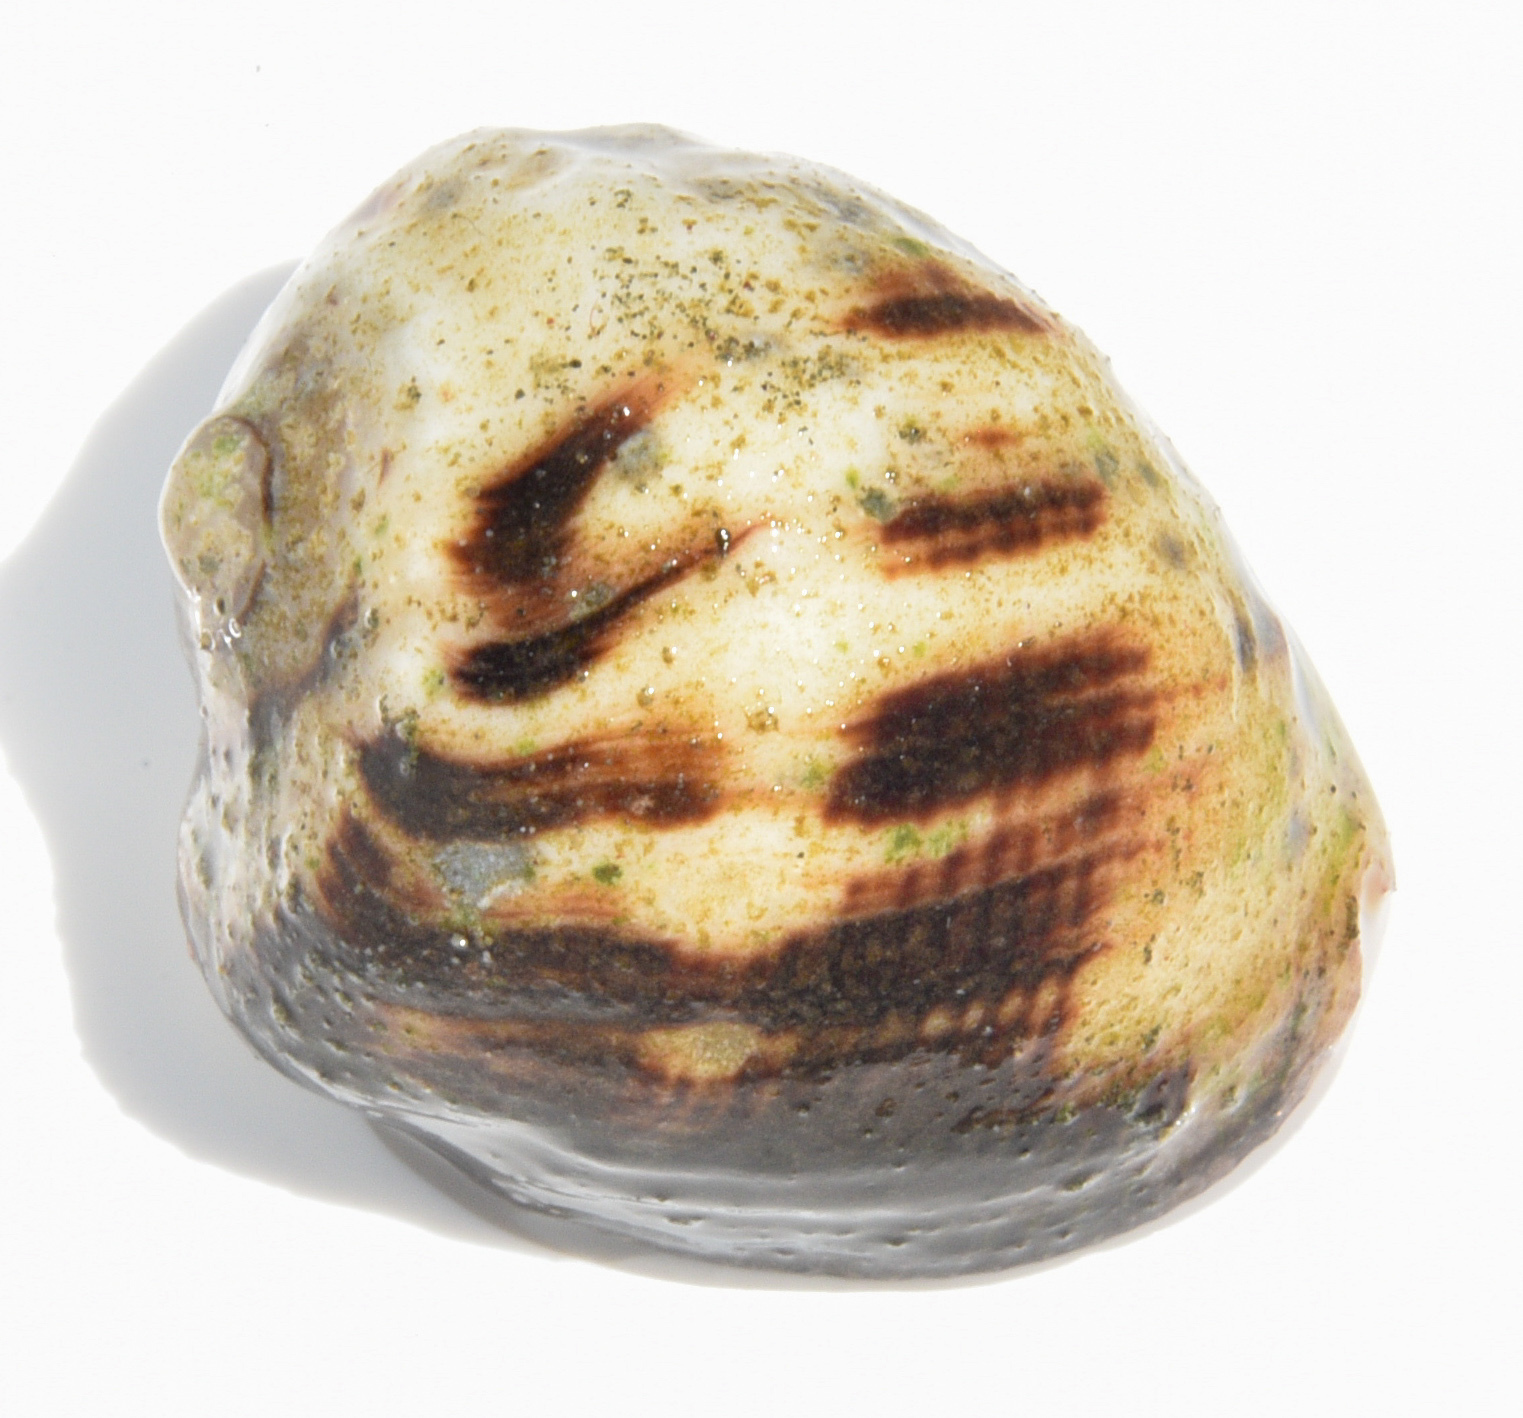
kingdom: Animalia
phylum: Mollusca
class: Gastropoda
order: Neogastropoda
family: Muricidae
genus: Vasula
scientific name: Vasula melones
